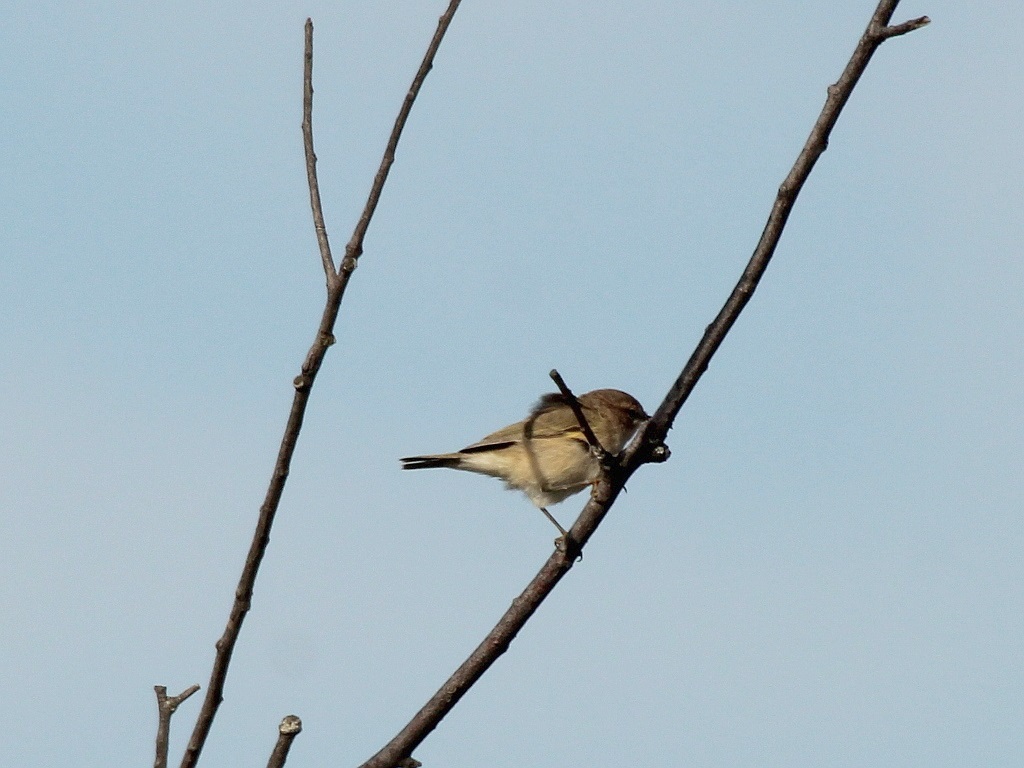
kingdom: Animalia
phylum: Chordata
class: Aves
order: Passeriformes
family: Phylloscopidae
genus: Phylloscopus
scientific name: Phylloscopus collybita
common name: Common chiffchaff
